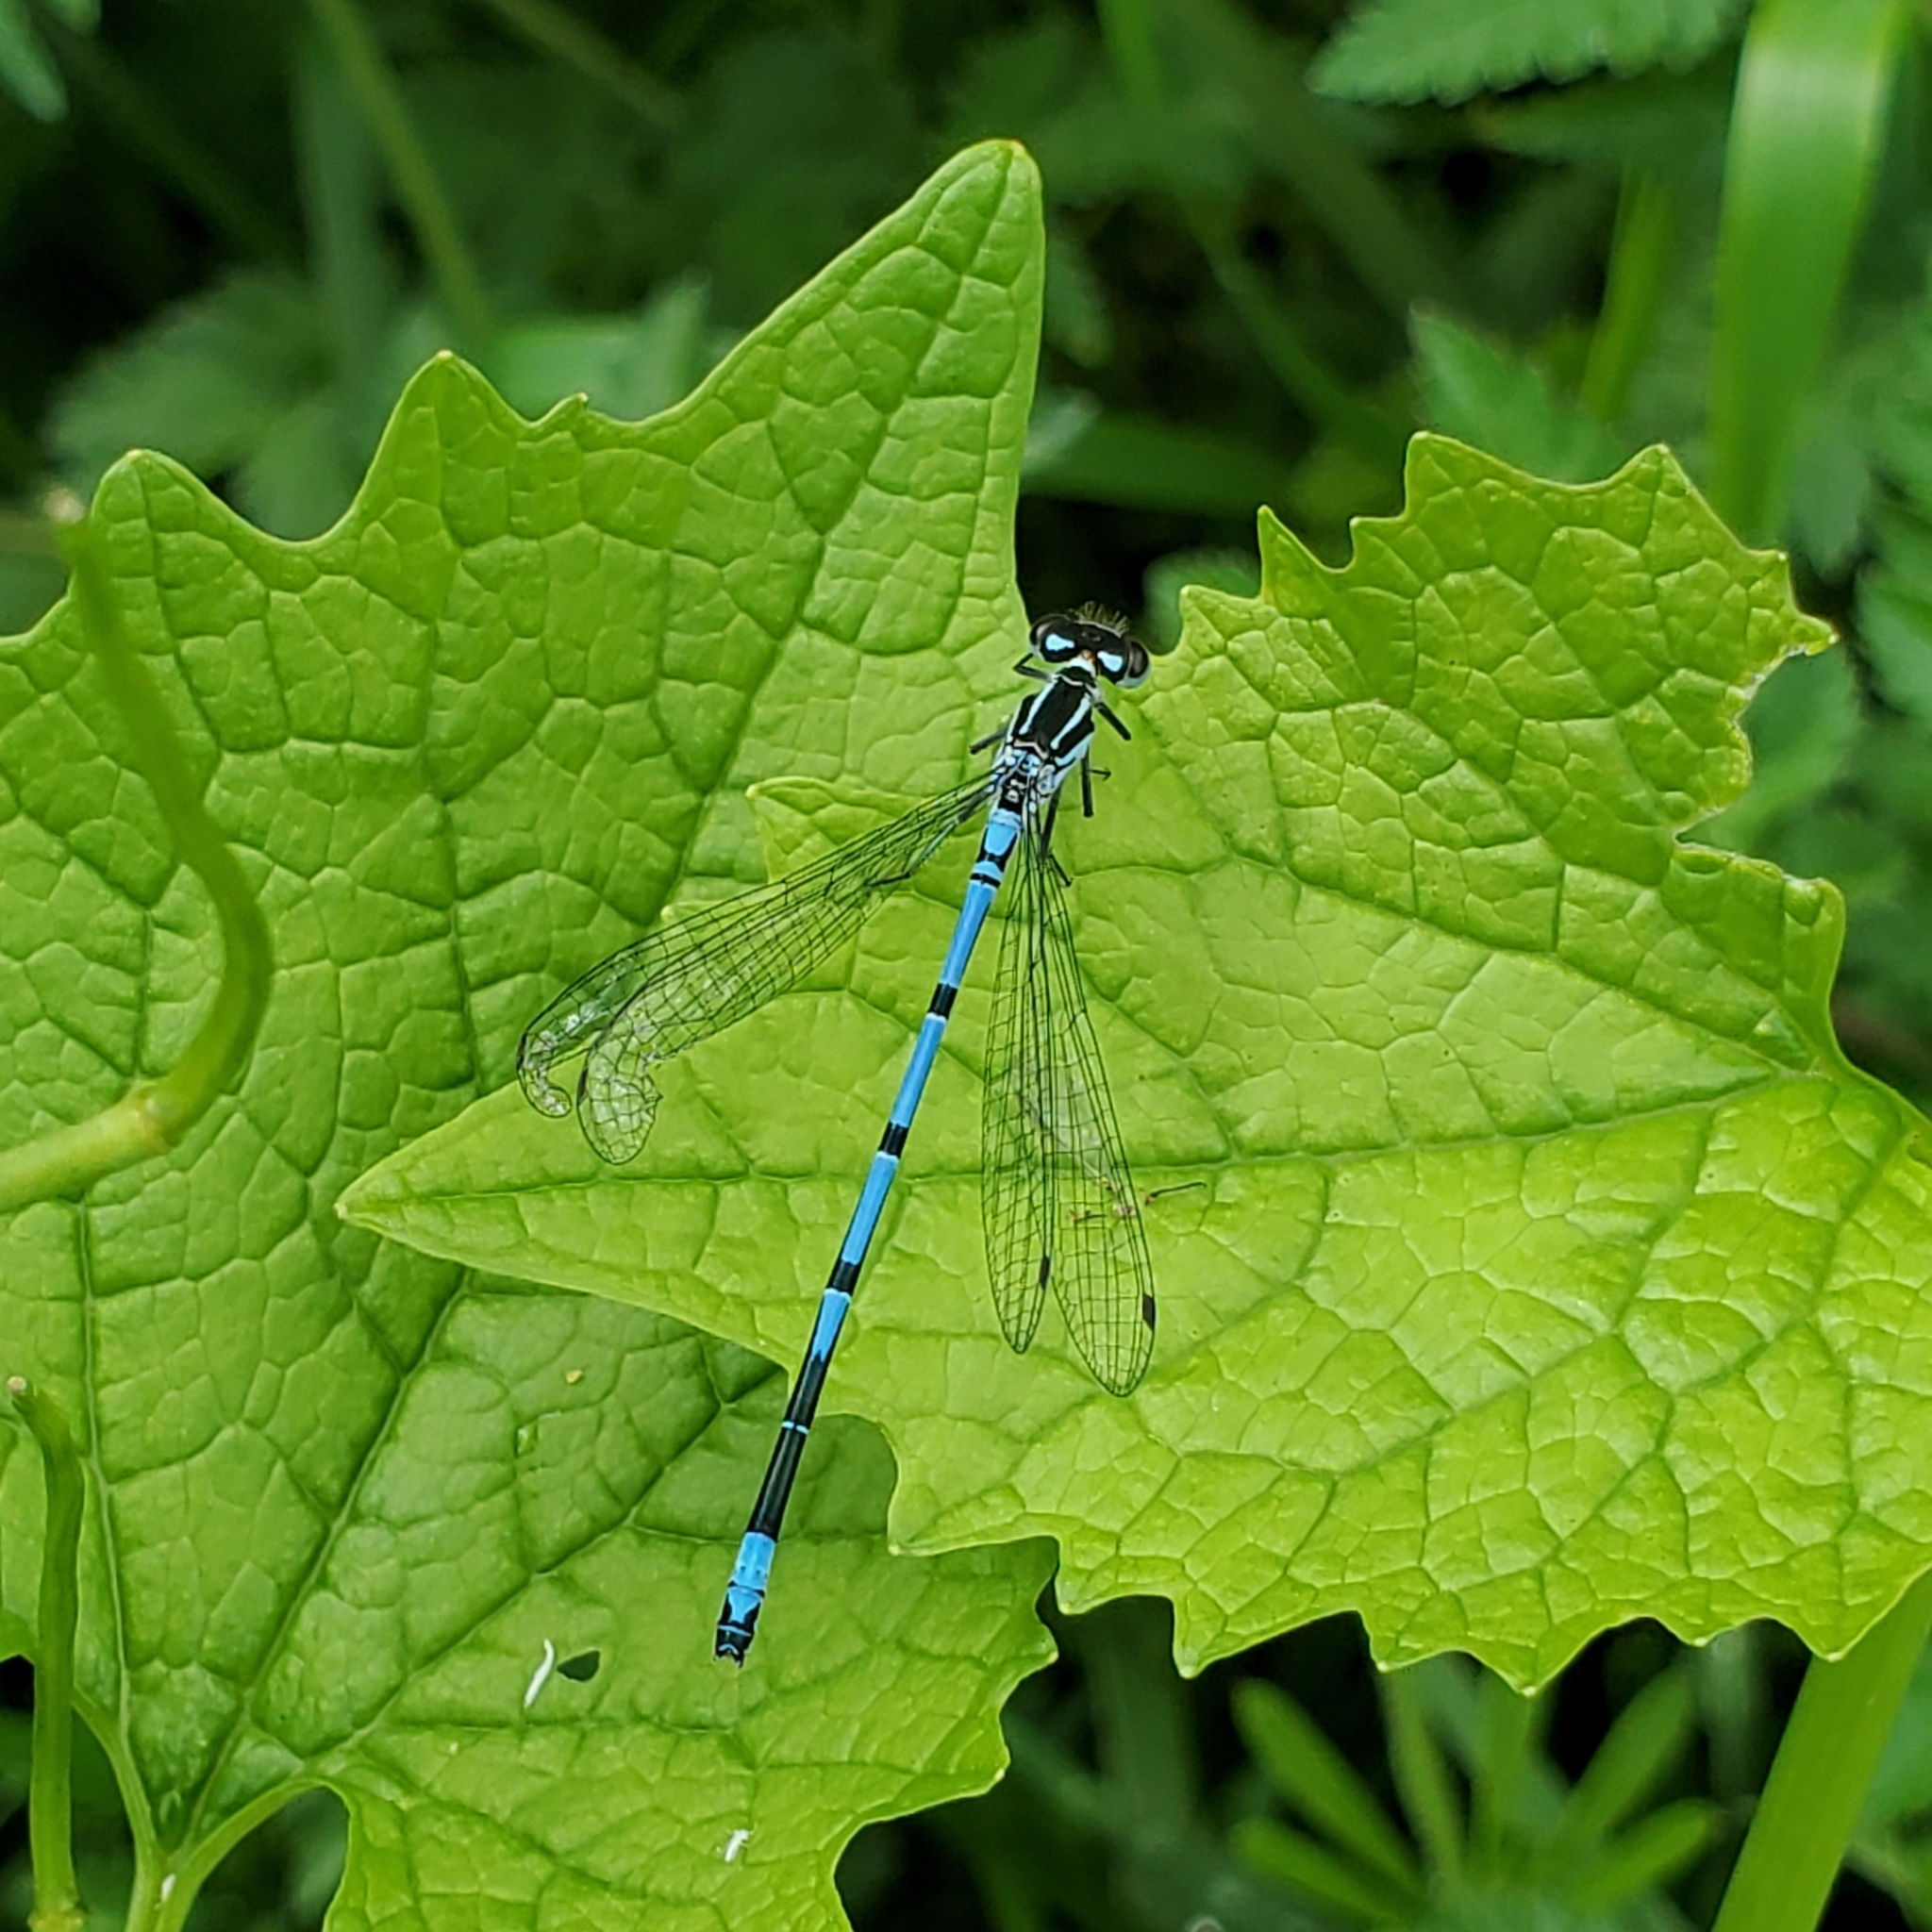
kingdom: Animalia
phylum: Arthropoda
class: Insecta
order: Odonata
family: Coenagrionidae
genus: Coenagrion
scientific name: Coenagrion puella
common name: Azure damselfly
